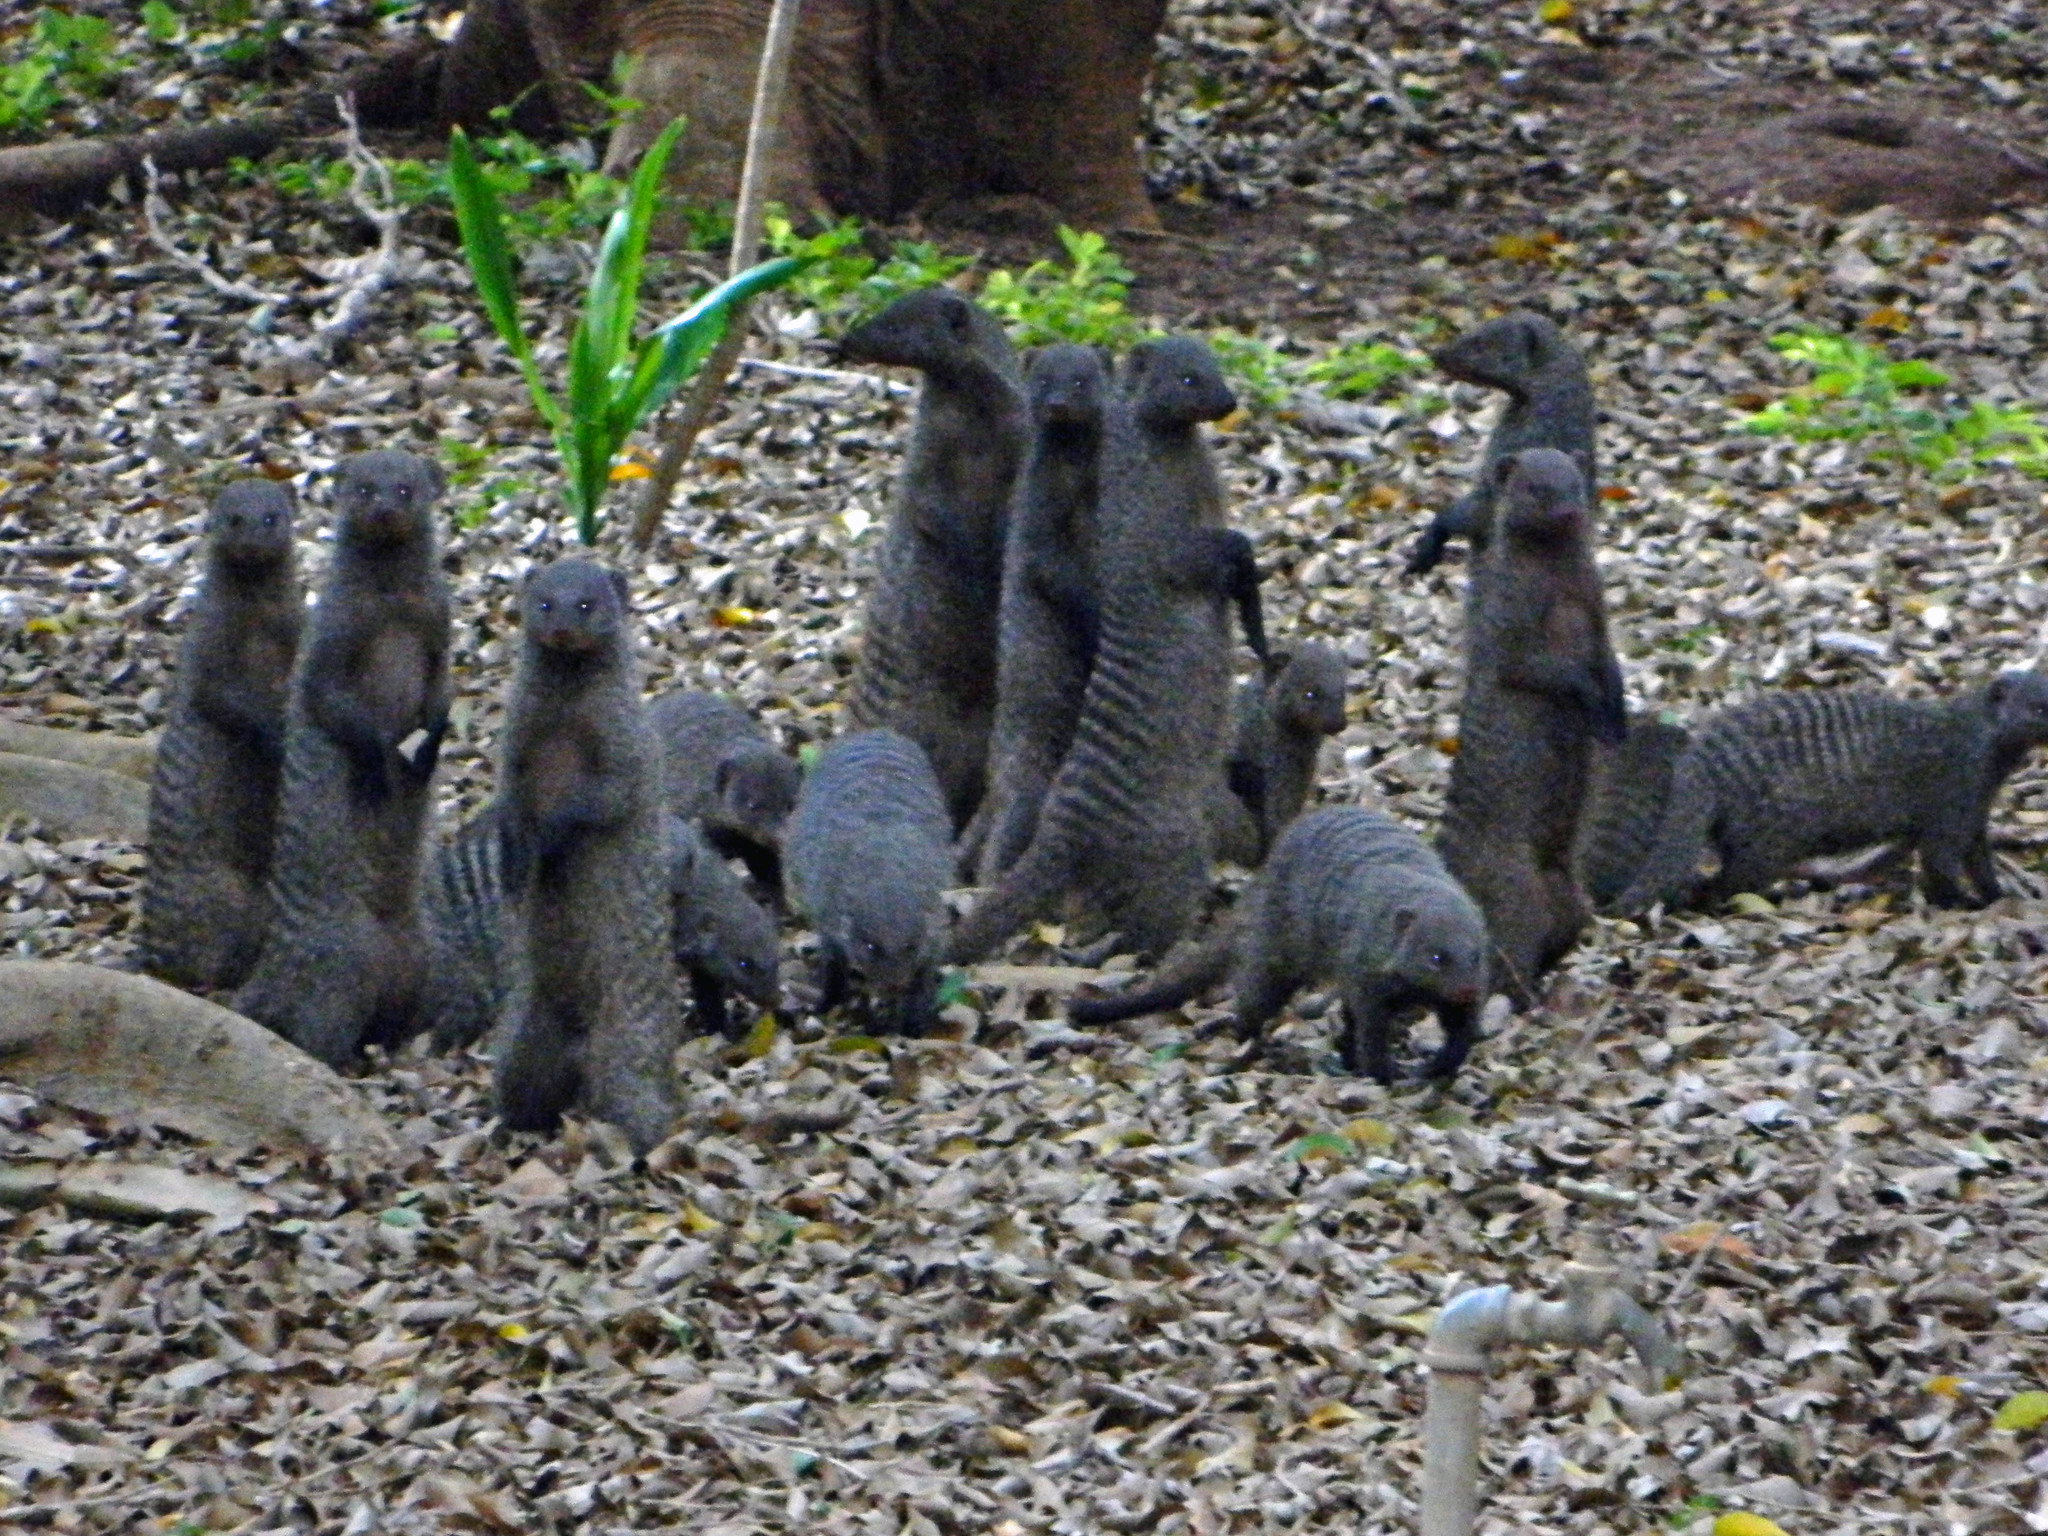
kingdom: Animalia
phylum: Chordata
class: Mammalia
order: Carnivora
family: Herpestidae
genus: Mungos
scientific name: Mungos mungo
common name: Banded mongoose
